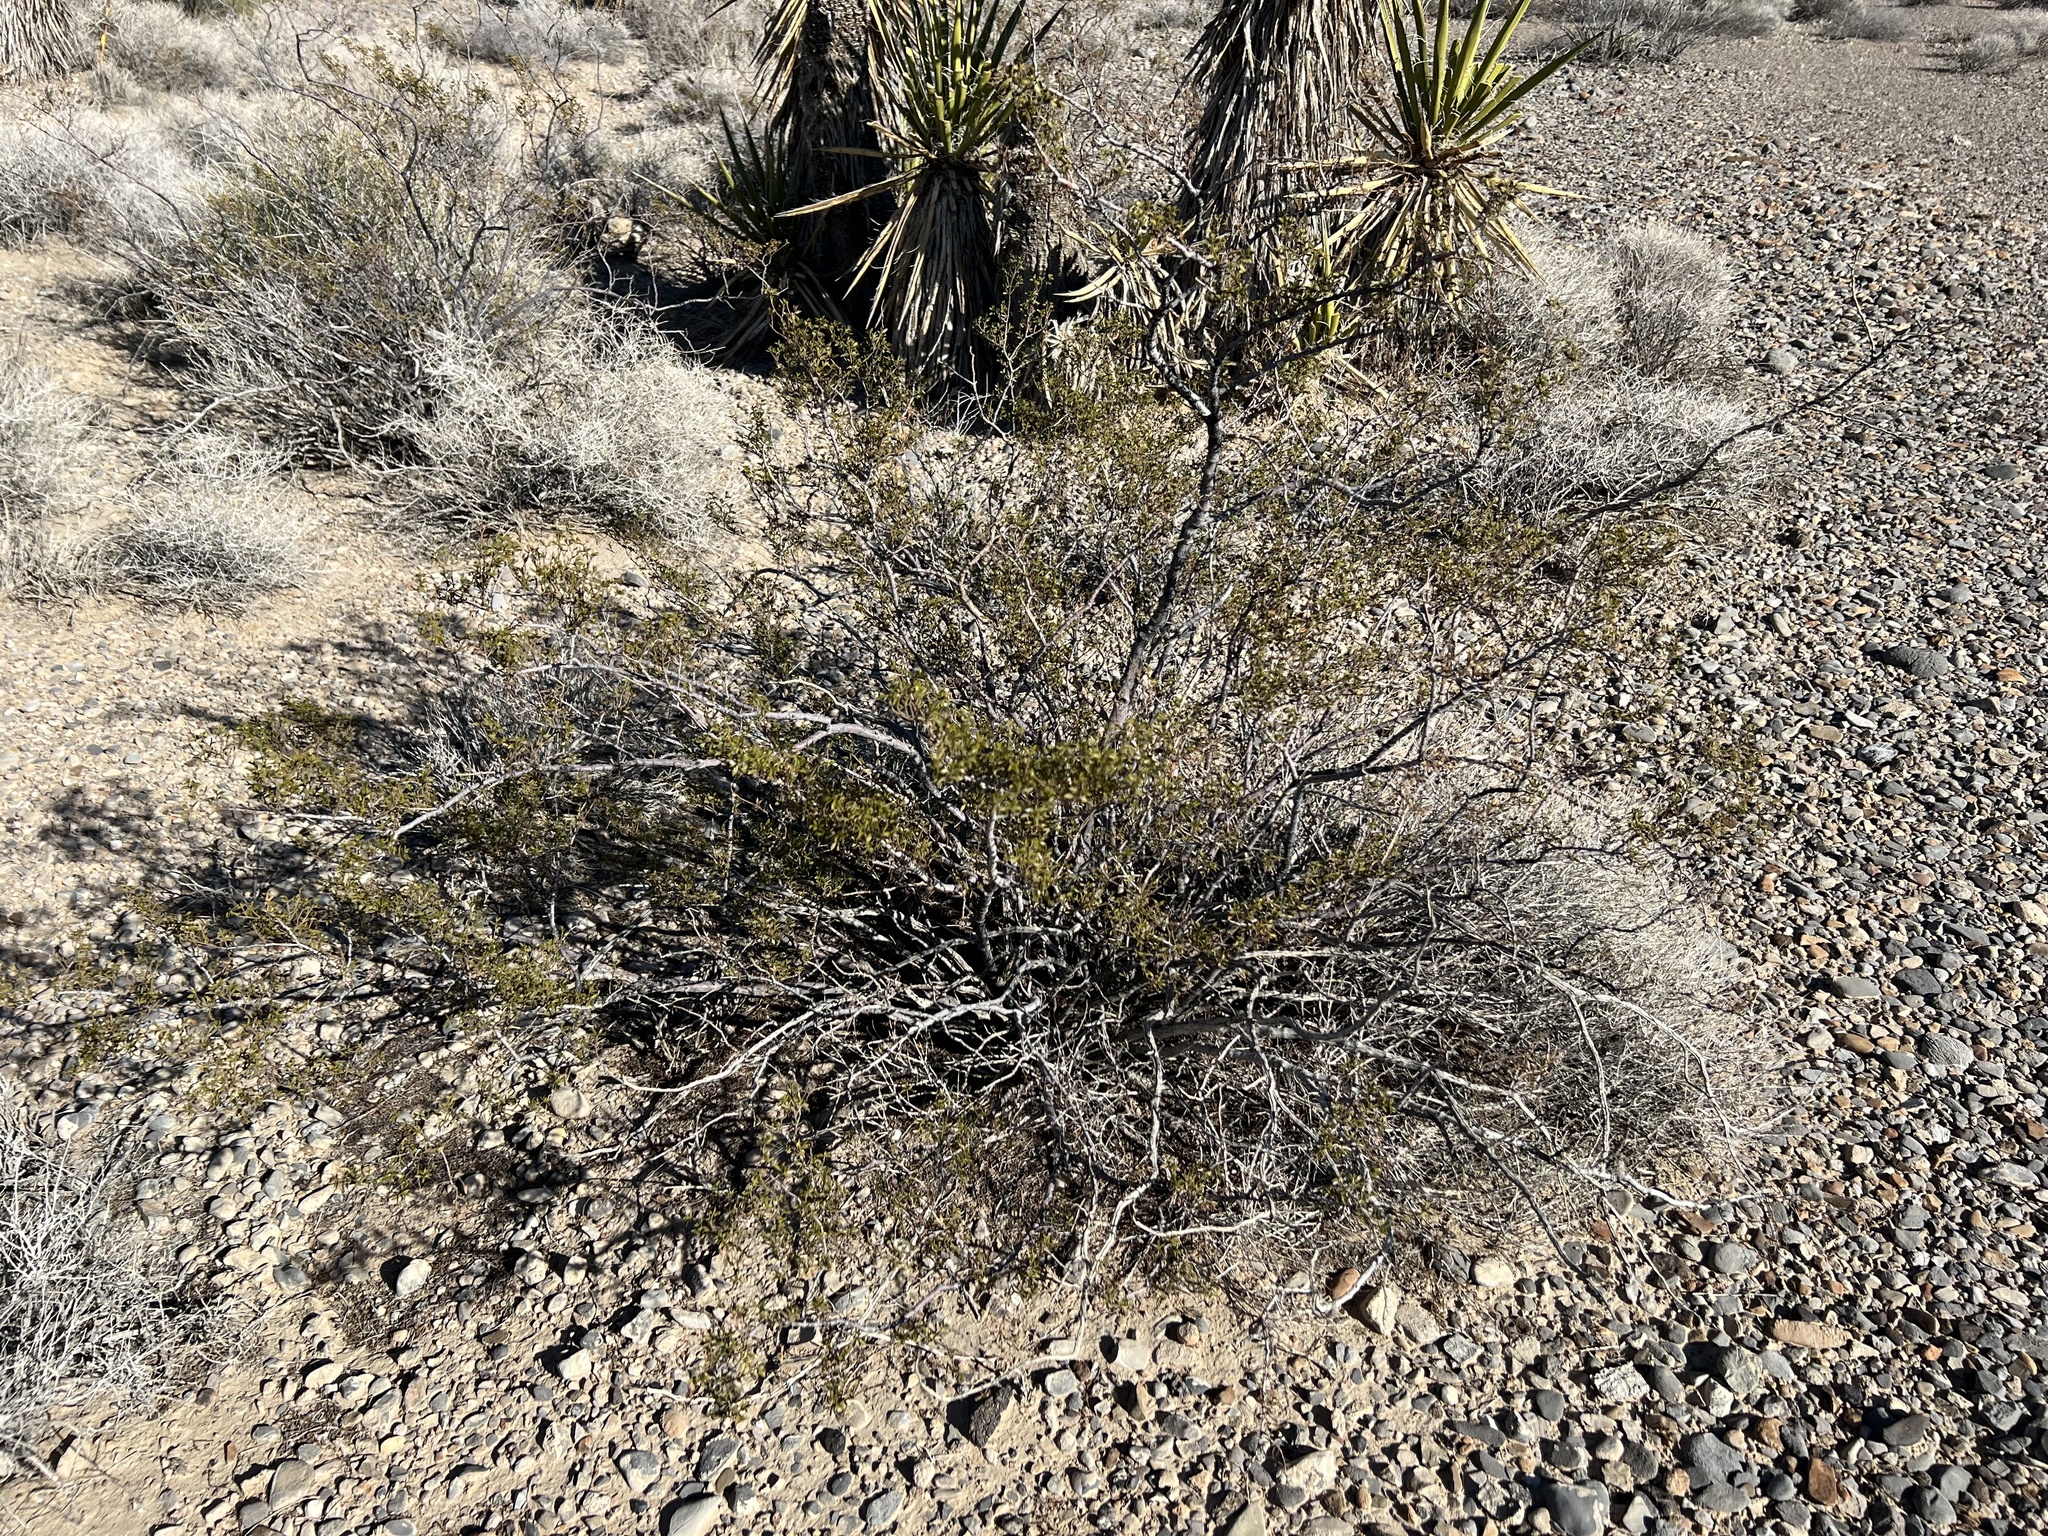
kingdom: Plantae
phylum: Tracheophyta
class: Magnoliopsida
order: Zygophyllales
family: Zygophyllaceae
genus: Larrea
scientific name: Larrea tridentata
